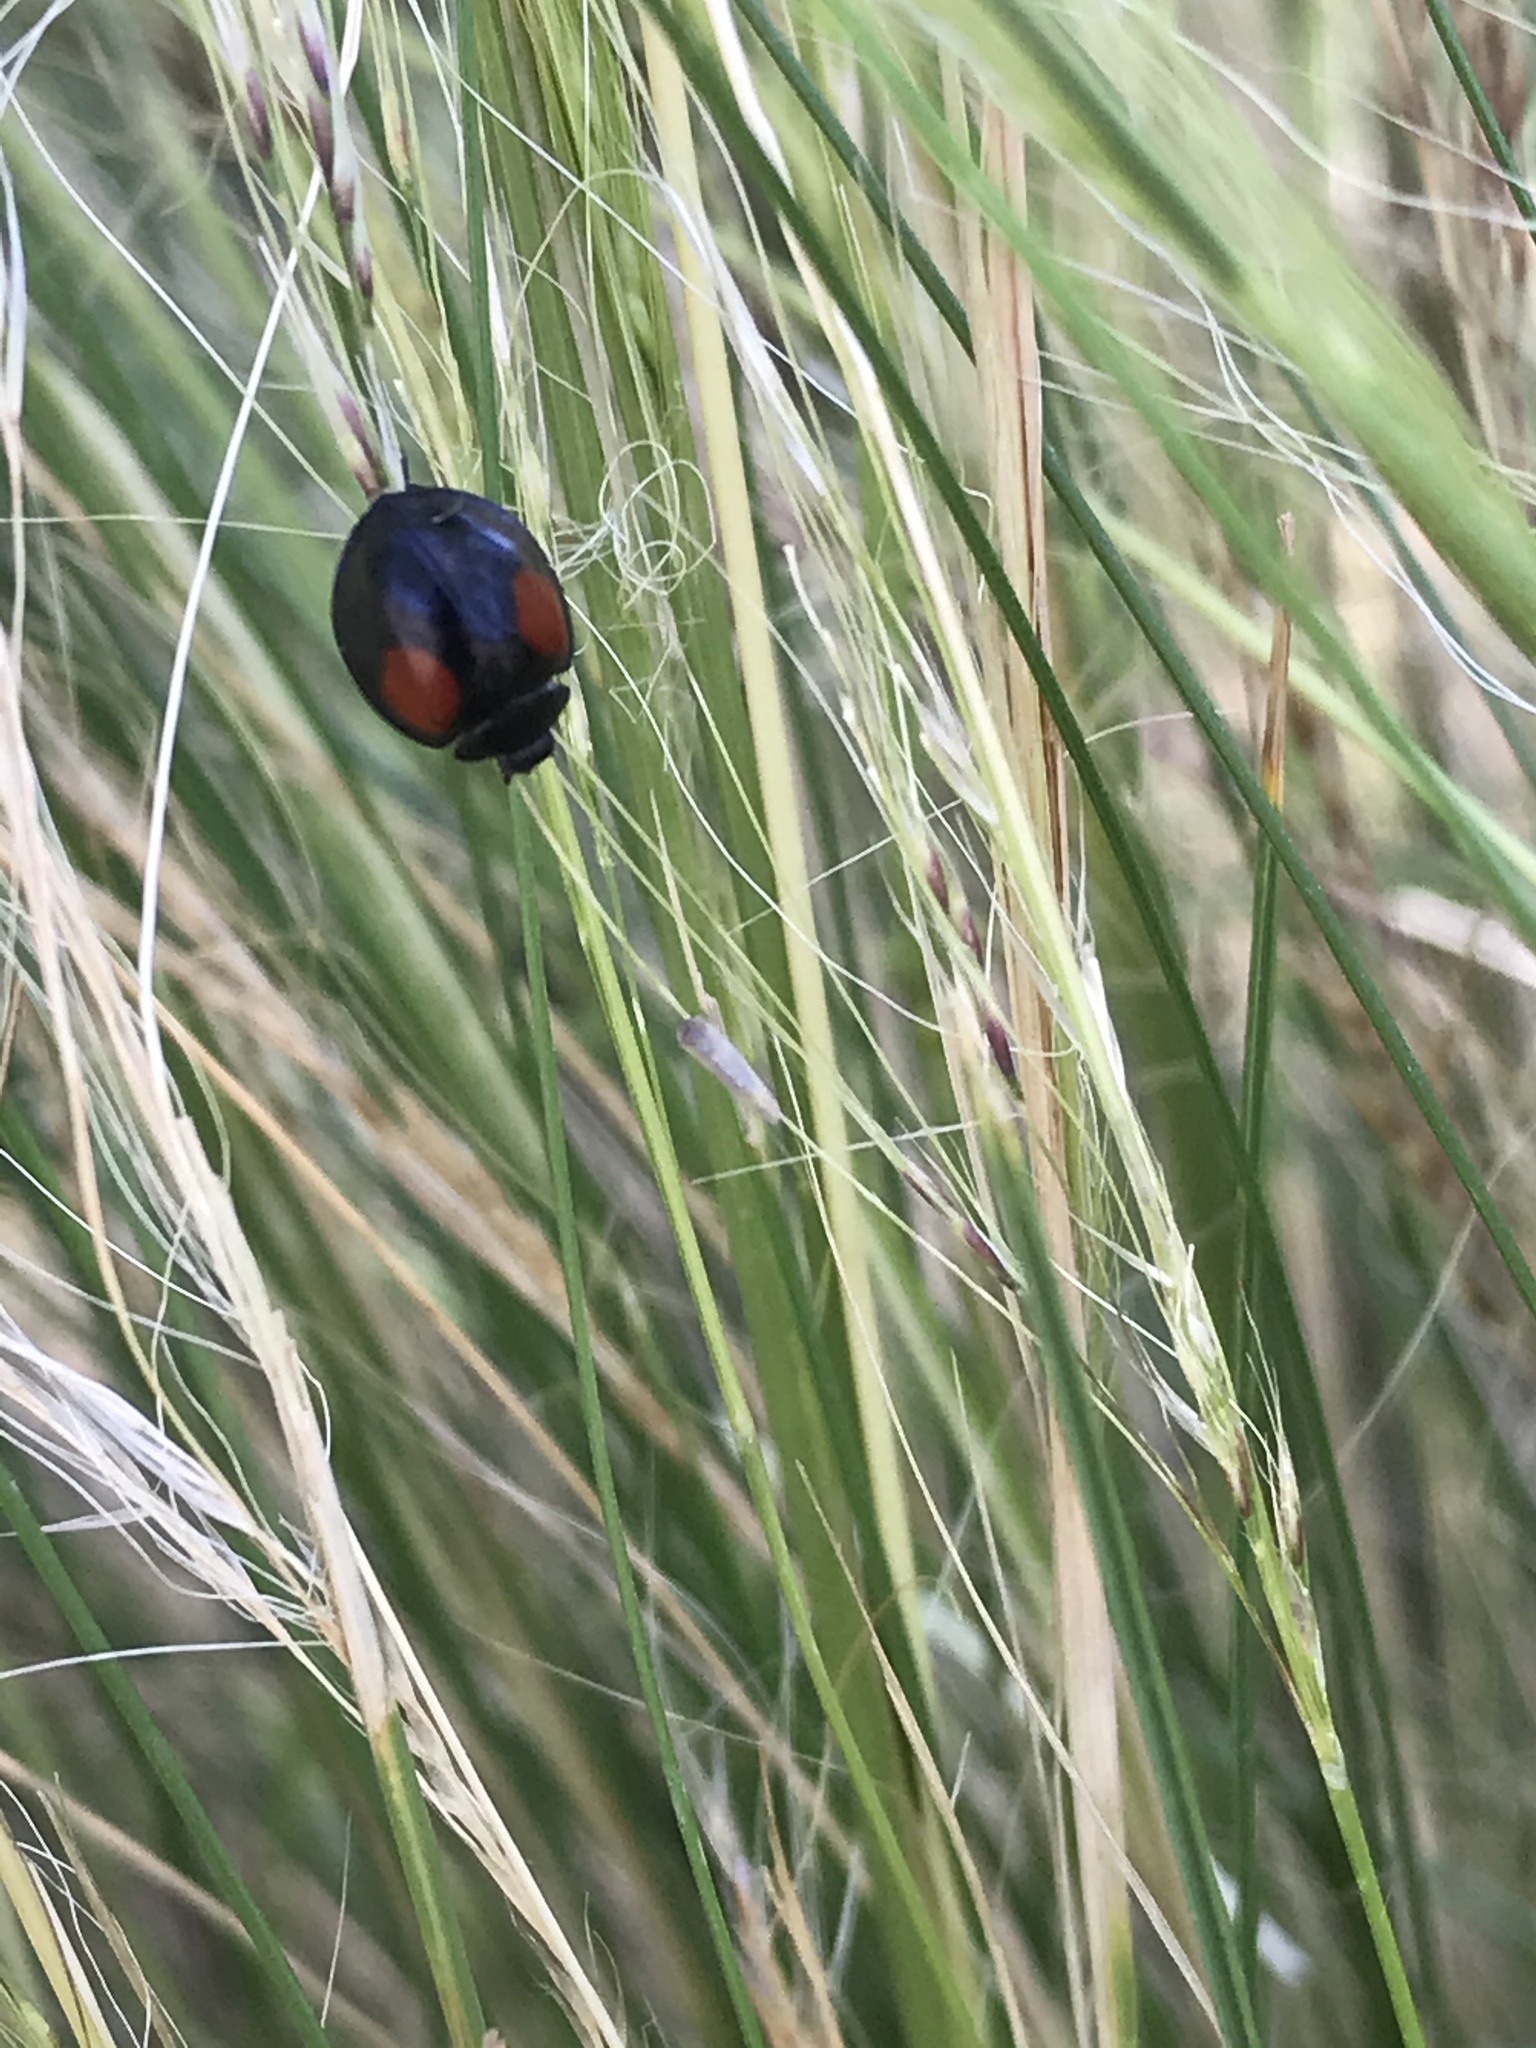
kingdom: Animalia
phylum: Arthropoda
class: Insecta
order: Coleoptera
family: Coccinellidae
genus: Axion
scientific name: Axion plagiatum
